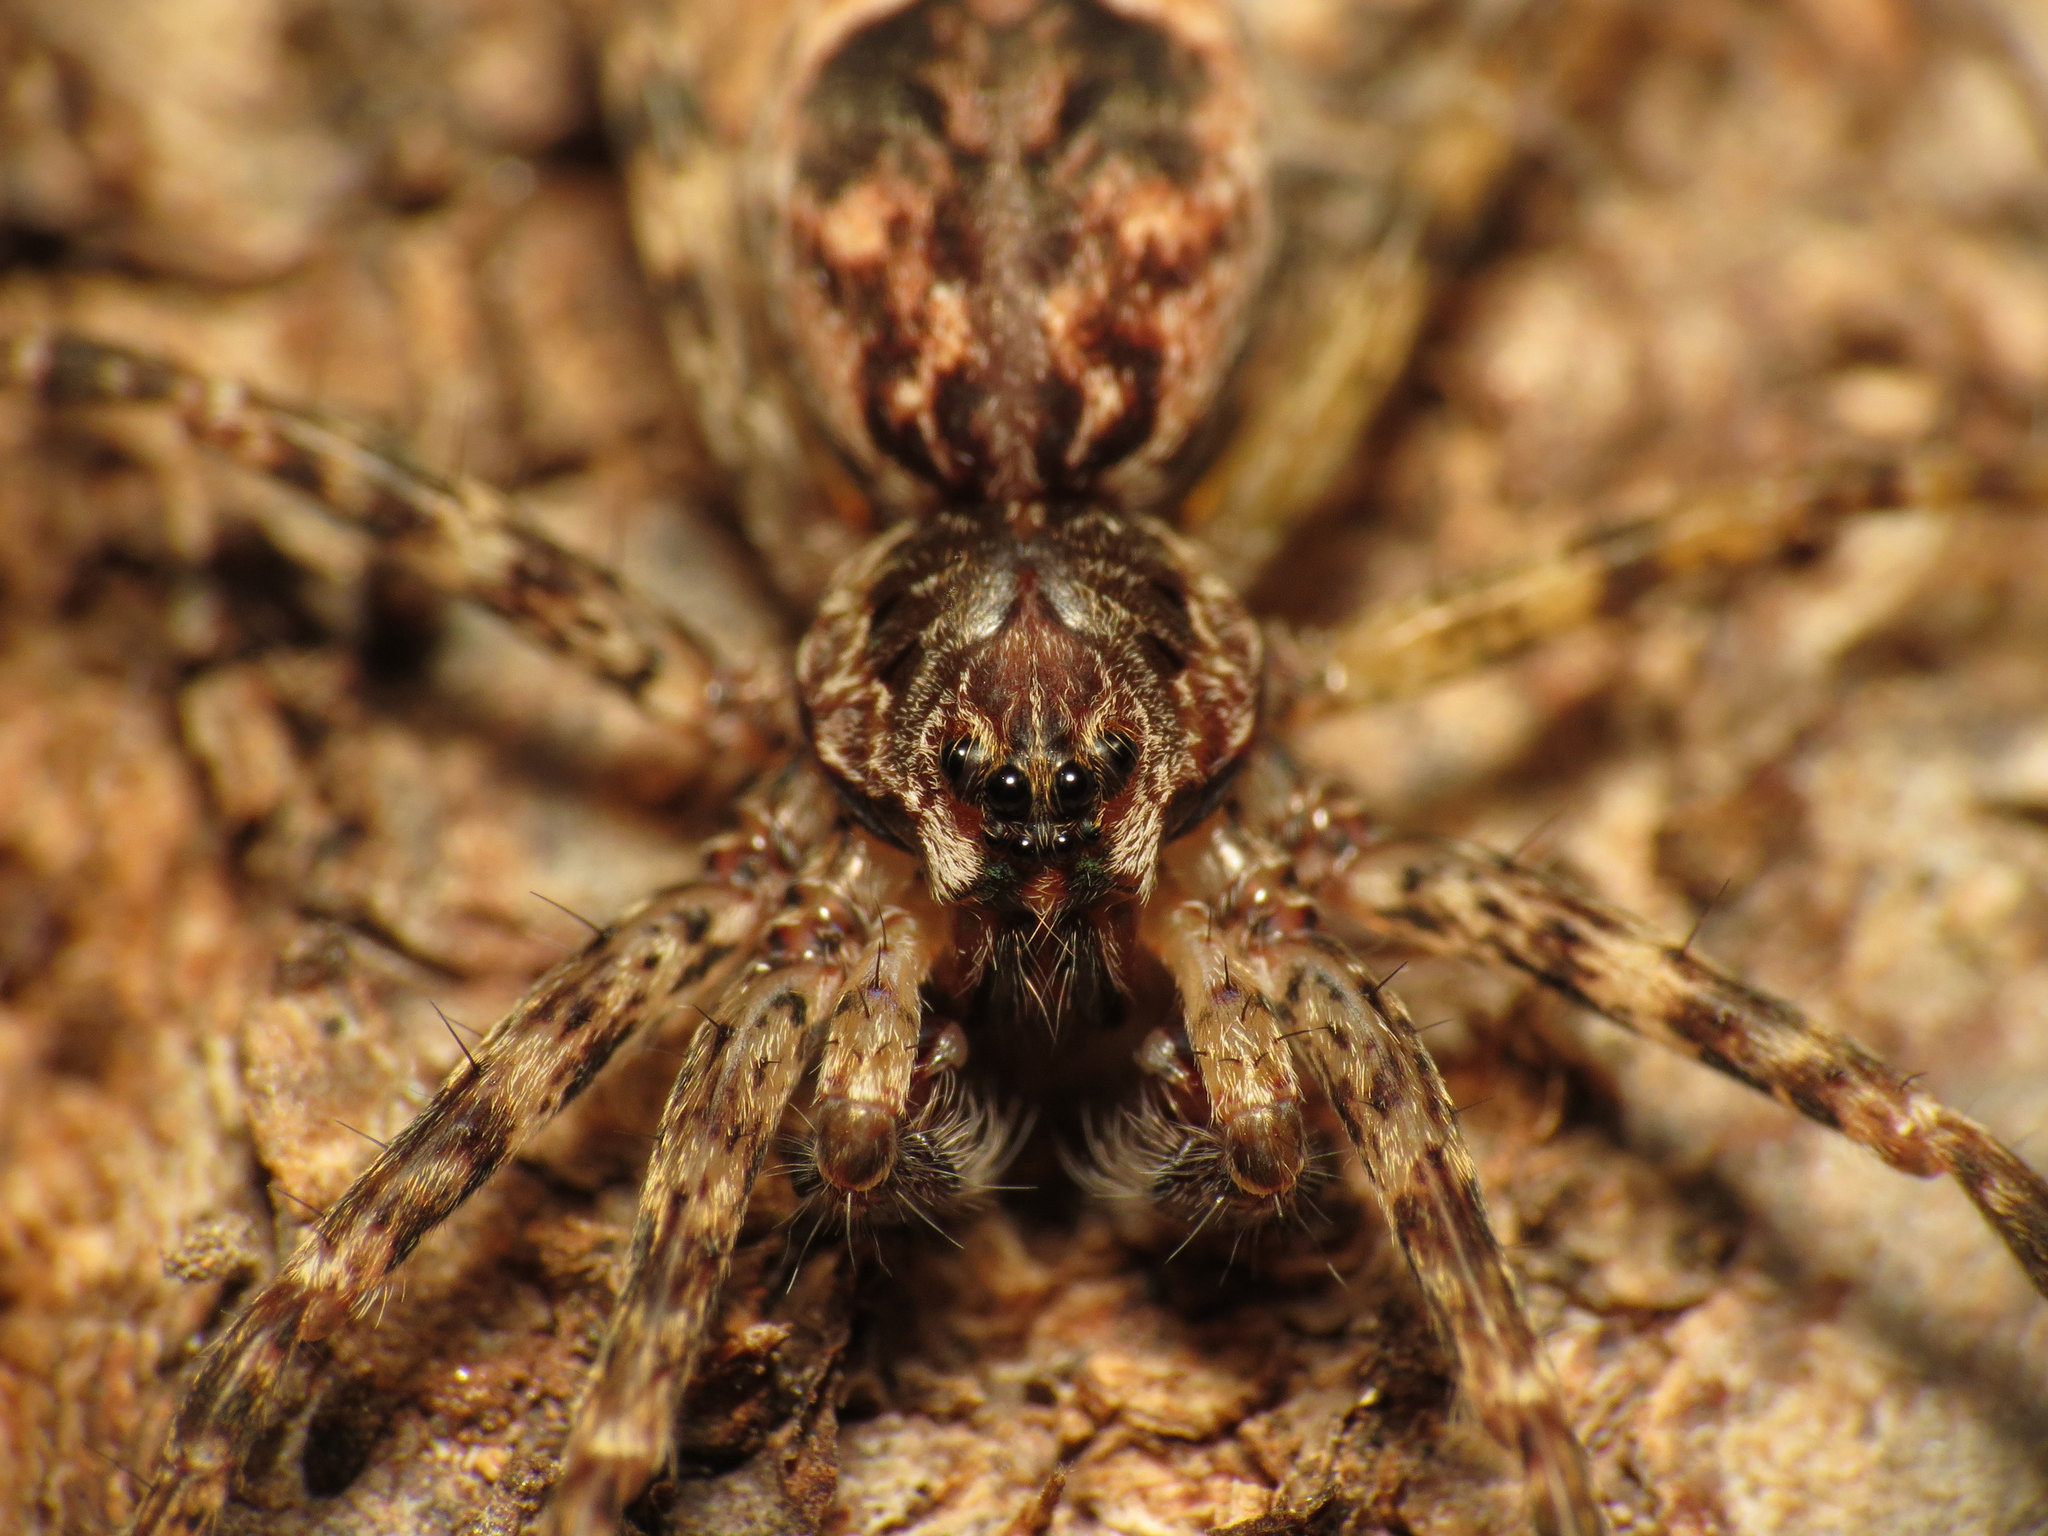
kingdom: Animalia
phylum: Arthropoda
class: Arachnida
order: Araneae
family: Pisauridae
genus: Dolomedes
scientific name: Dolomedes tenebrosus
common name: Dark fishing spider
